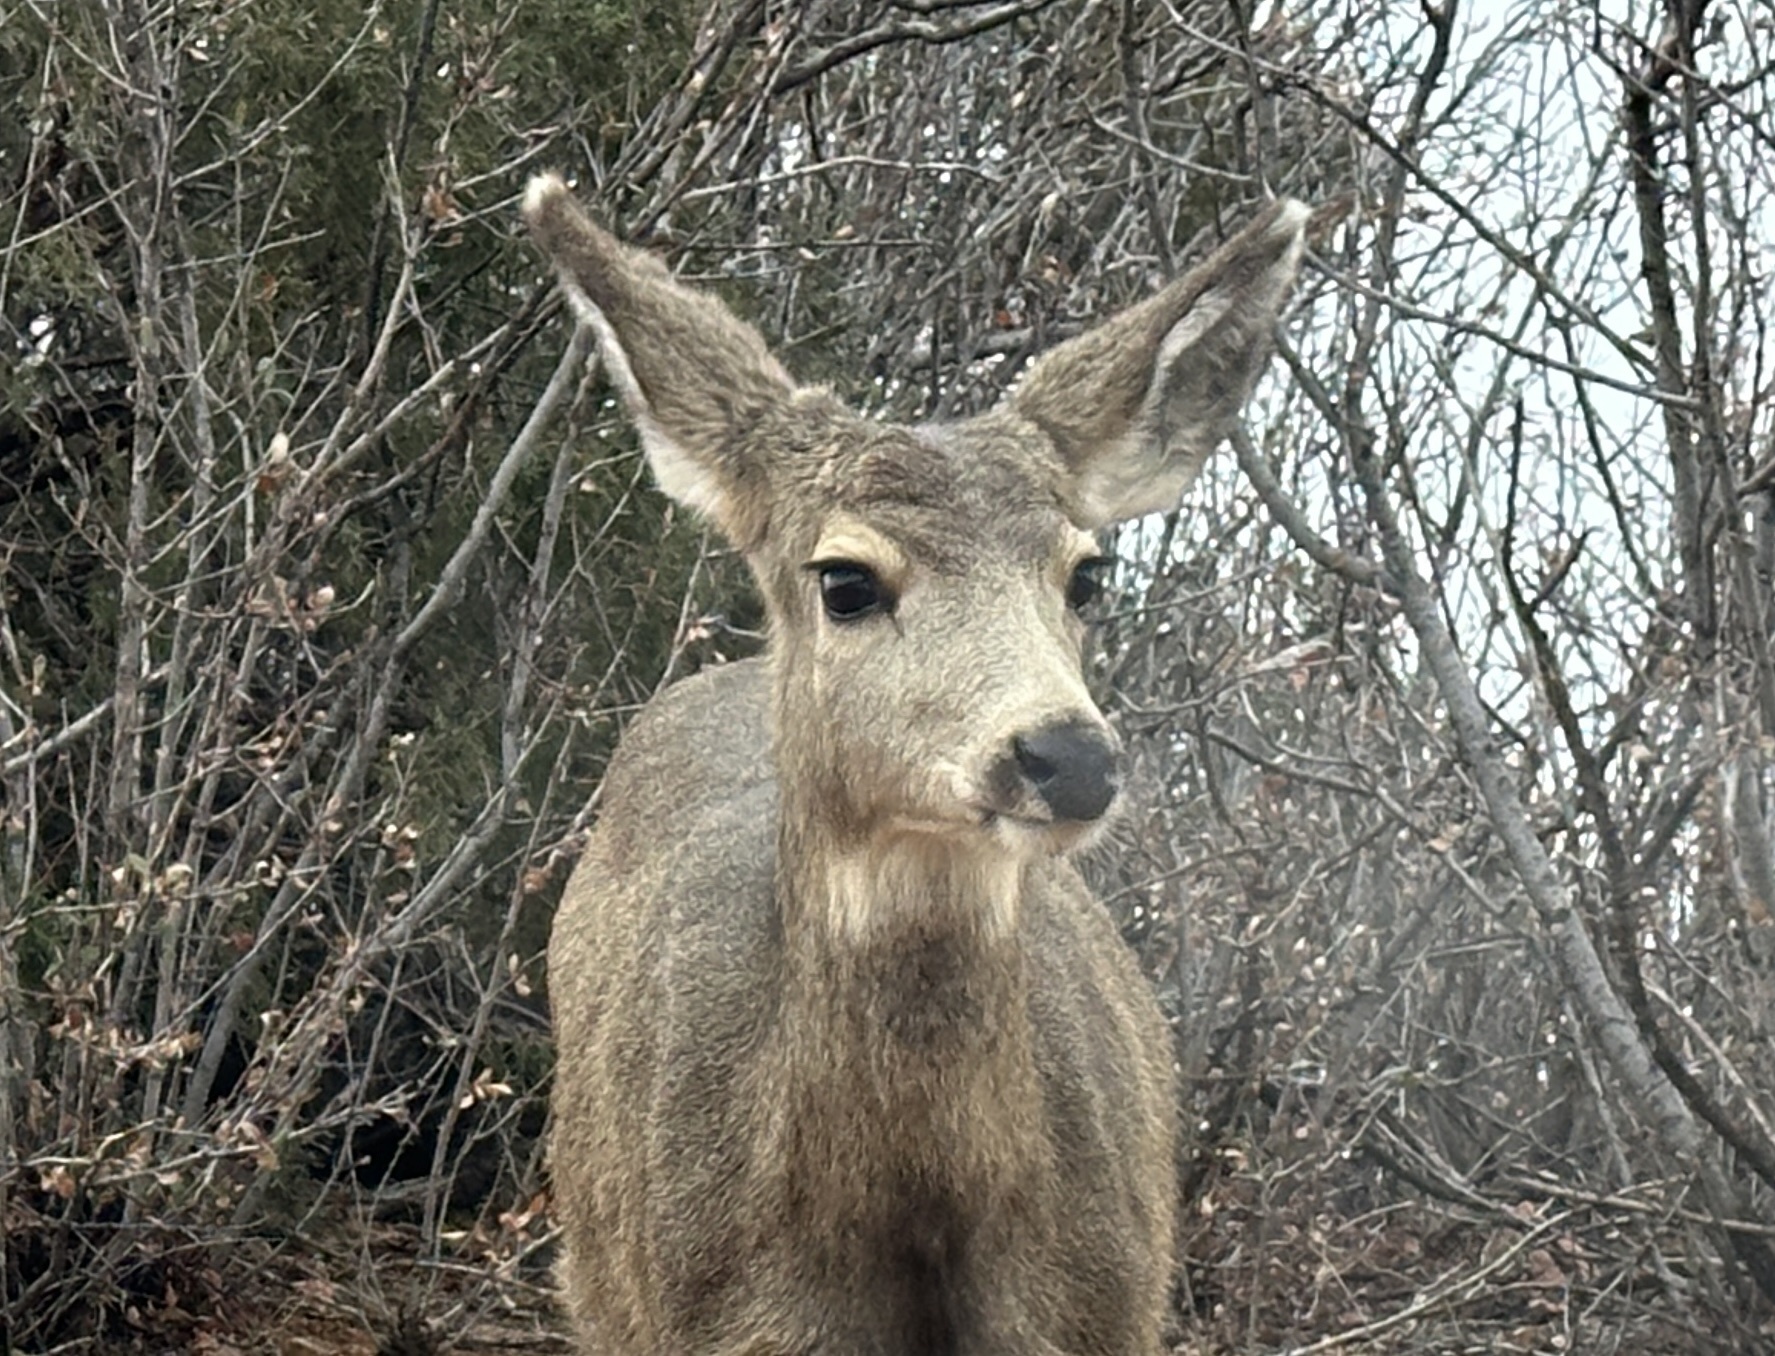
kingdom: Animalia
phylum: Chordata
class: Mammalia
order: Artiodactyla
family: Cervidae
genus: Odocoileus
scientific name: Odocoileus hemionus
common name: Mule deer
